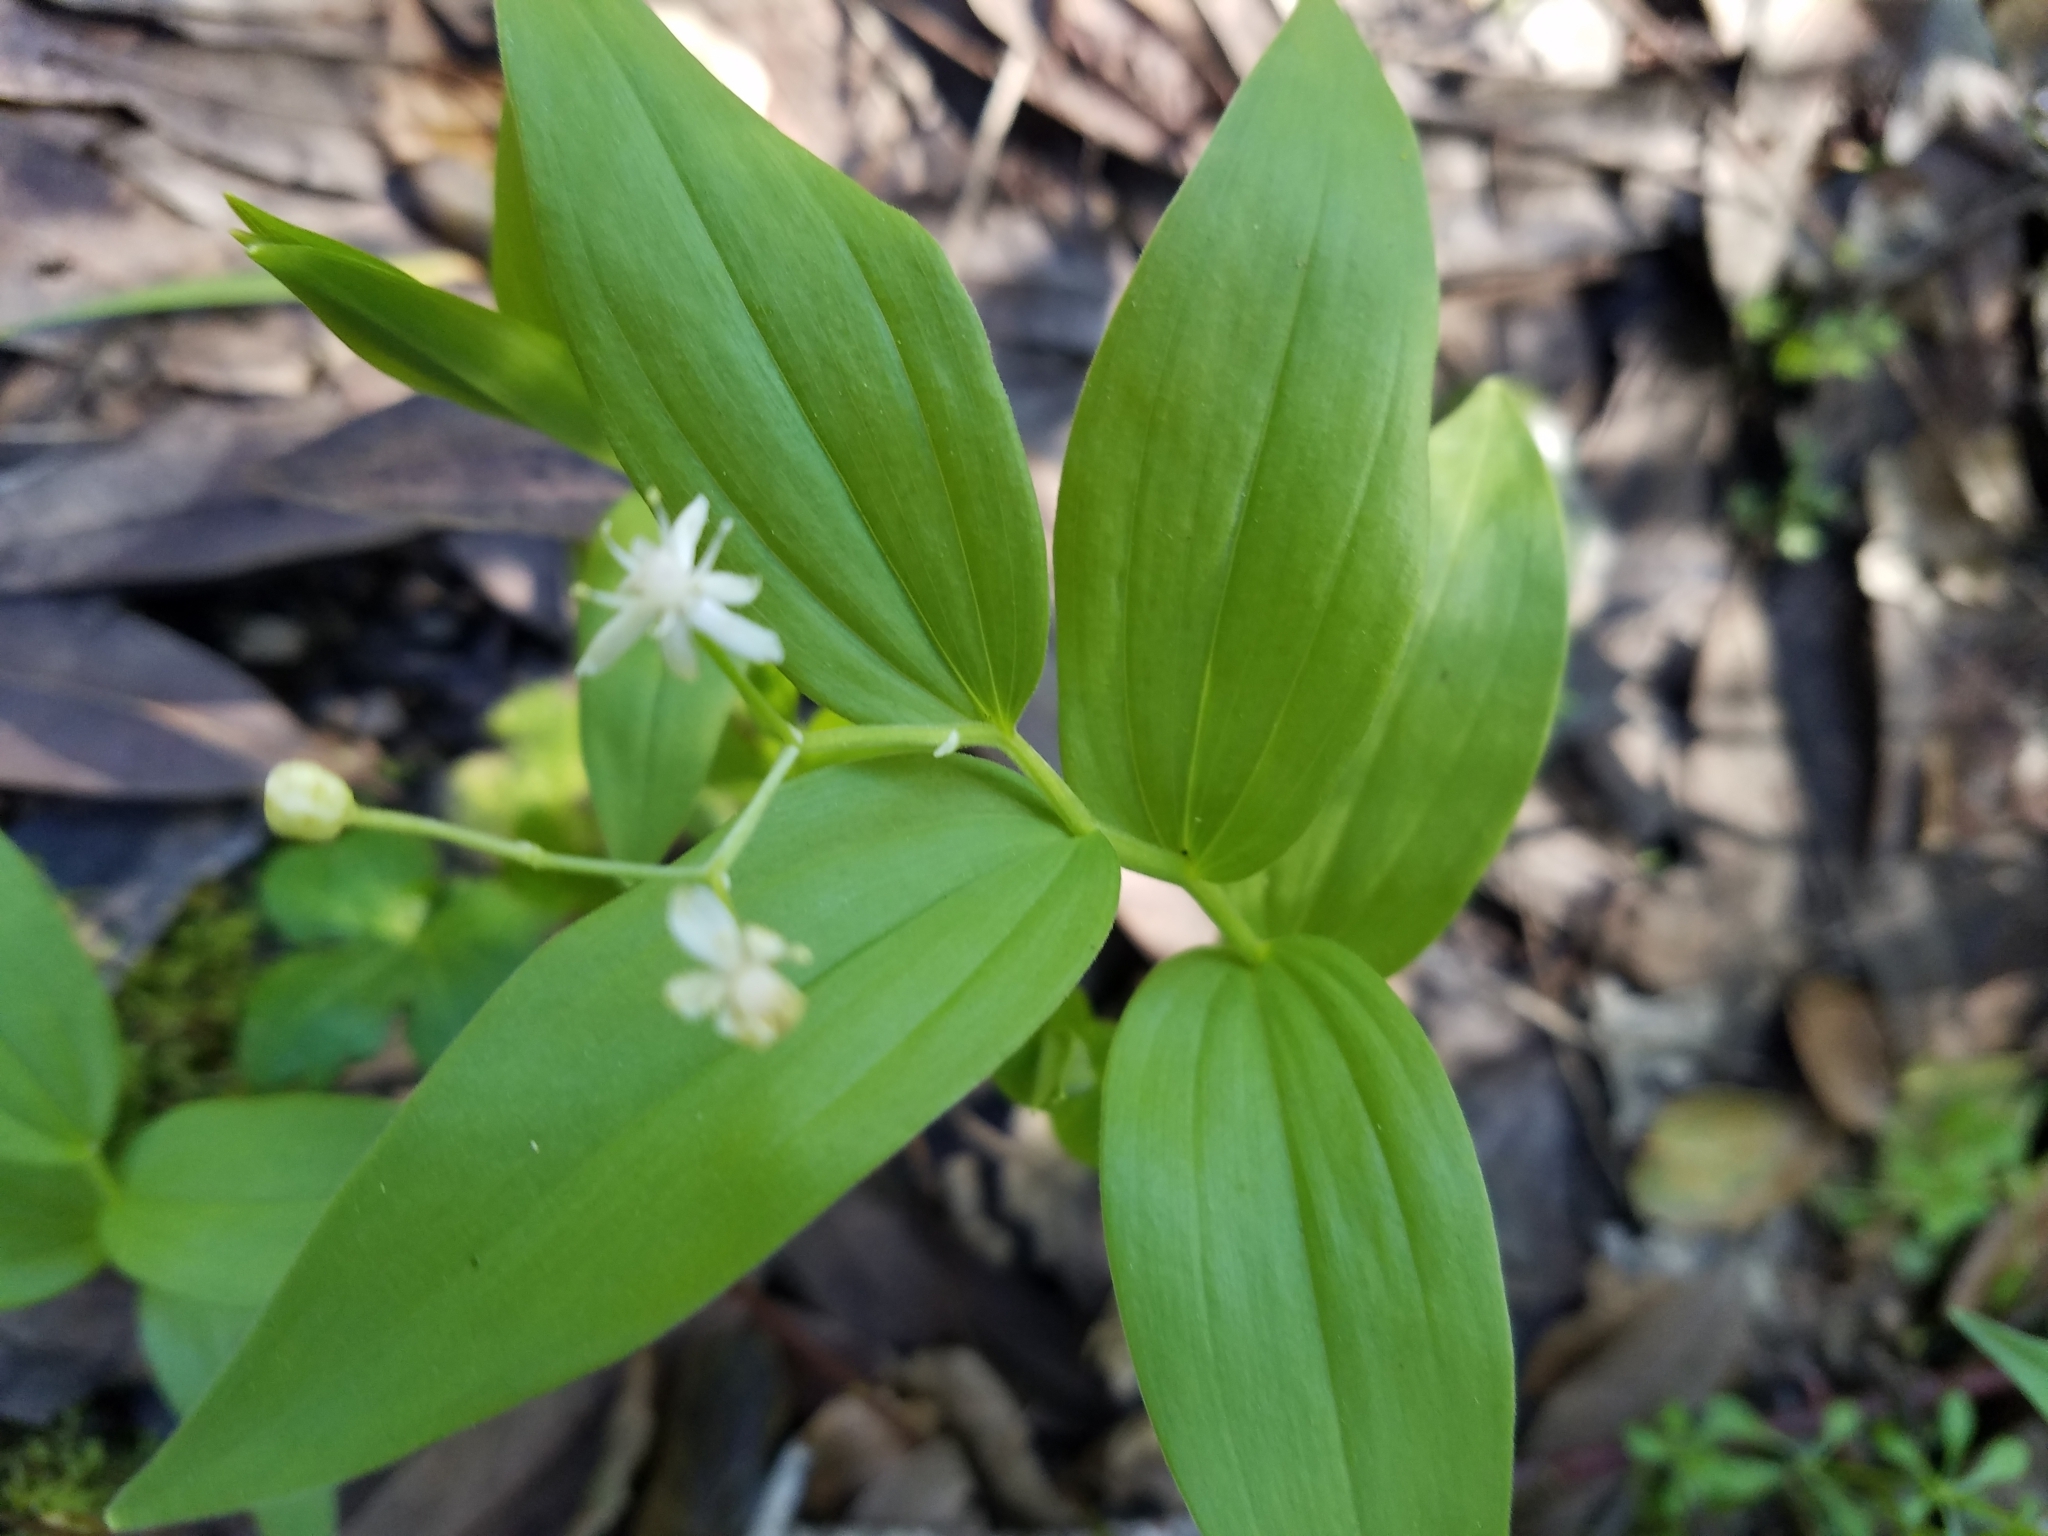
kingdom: Plantae
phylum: Tracheophyta
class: Liliopsida
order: Asparagales
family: Asparagaceae
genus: Maianthemum
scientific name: Maianthemum stellatum
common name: Little false solomon's seal
